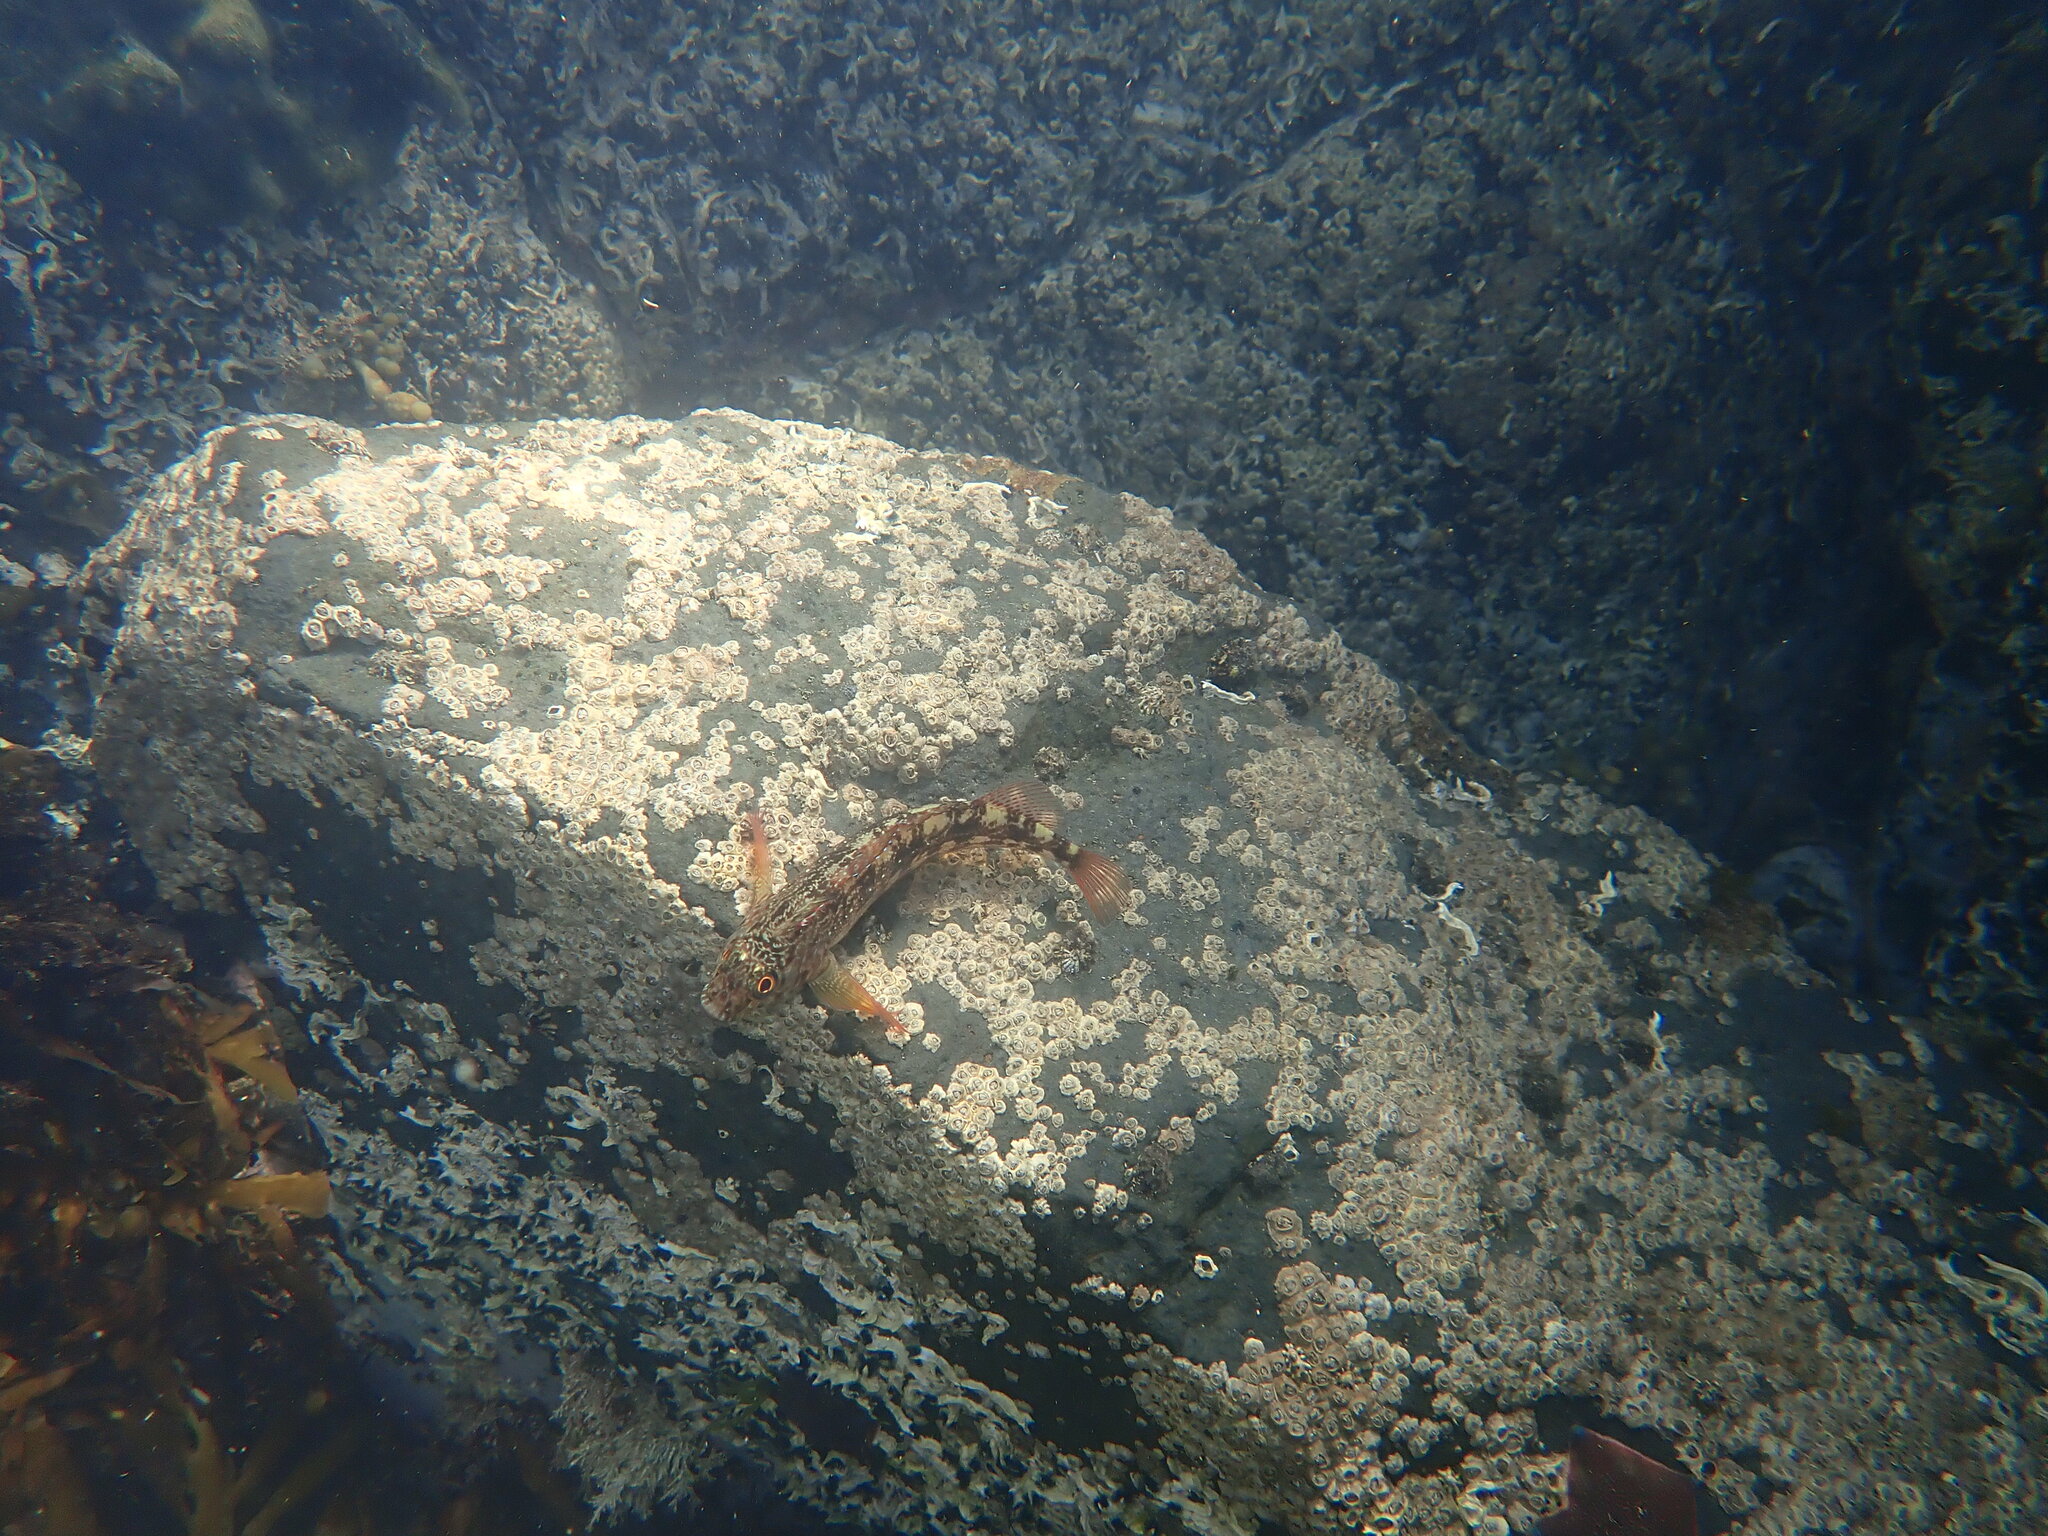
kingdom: Animalia
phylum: Chordata
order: Perciformes
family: Tripterygiidae
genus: Forsterygion
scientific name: Forsterygion varium
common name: Variable triplefin
